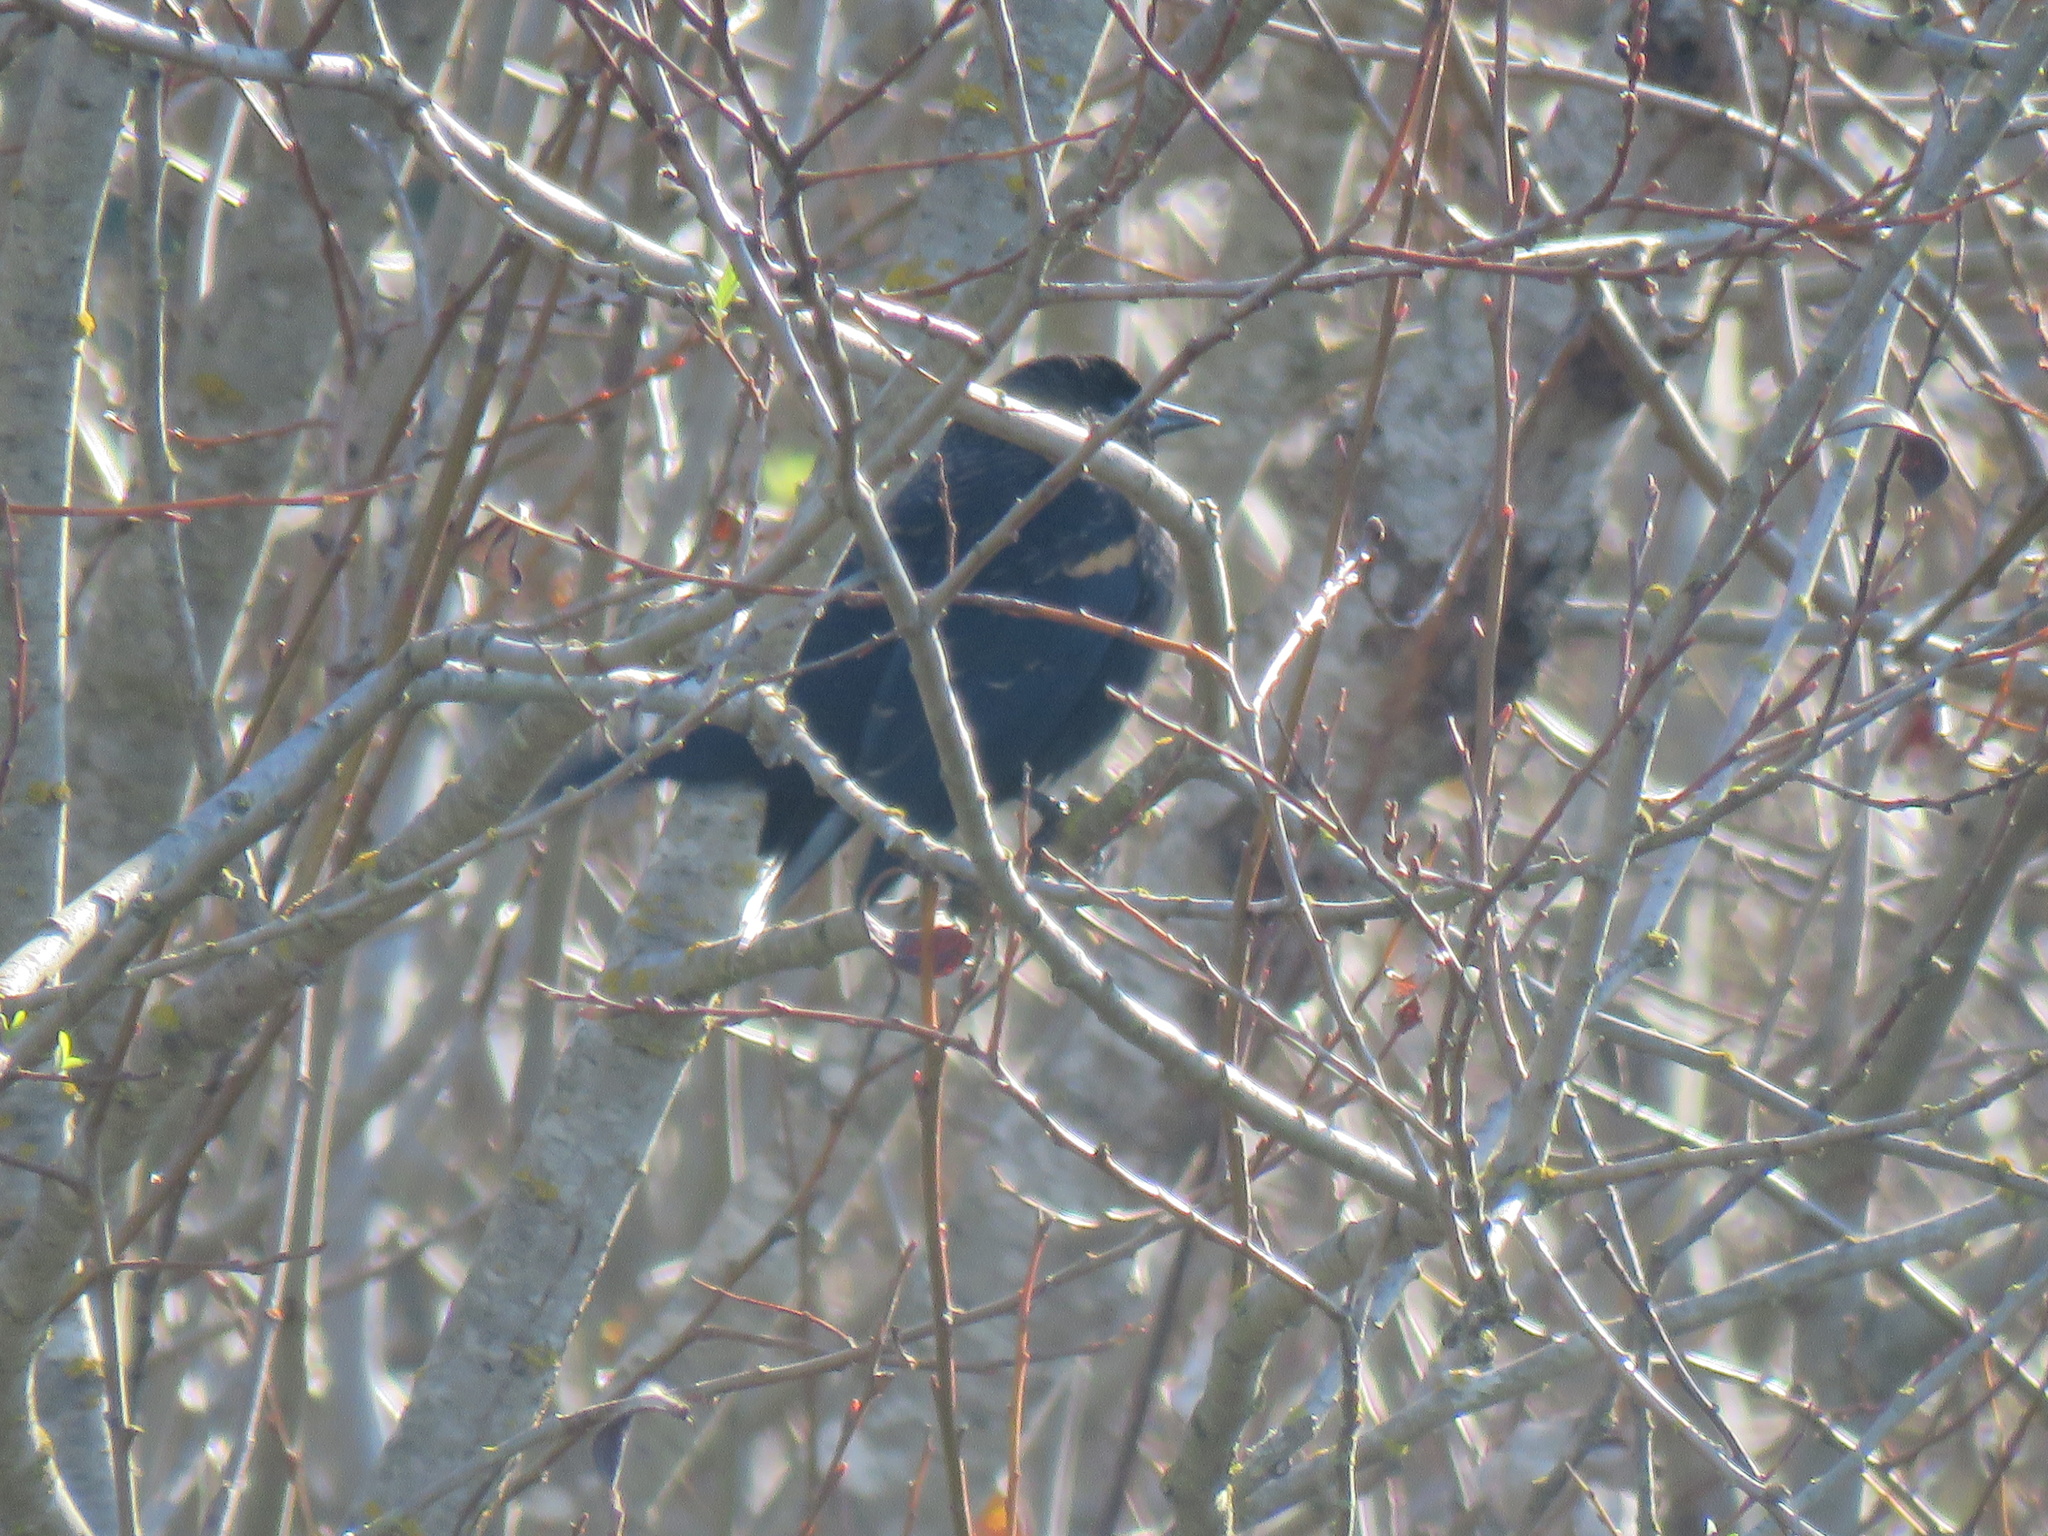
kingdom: Animalia
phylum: Chordata
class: Aves
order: Passeriformes
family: Icteridae
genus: Agelaius
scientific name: Agelaius phoeniceus
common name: Red-winged blackbird
